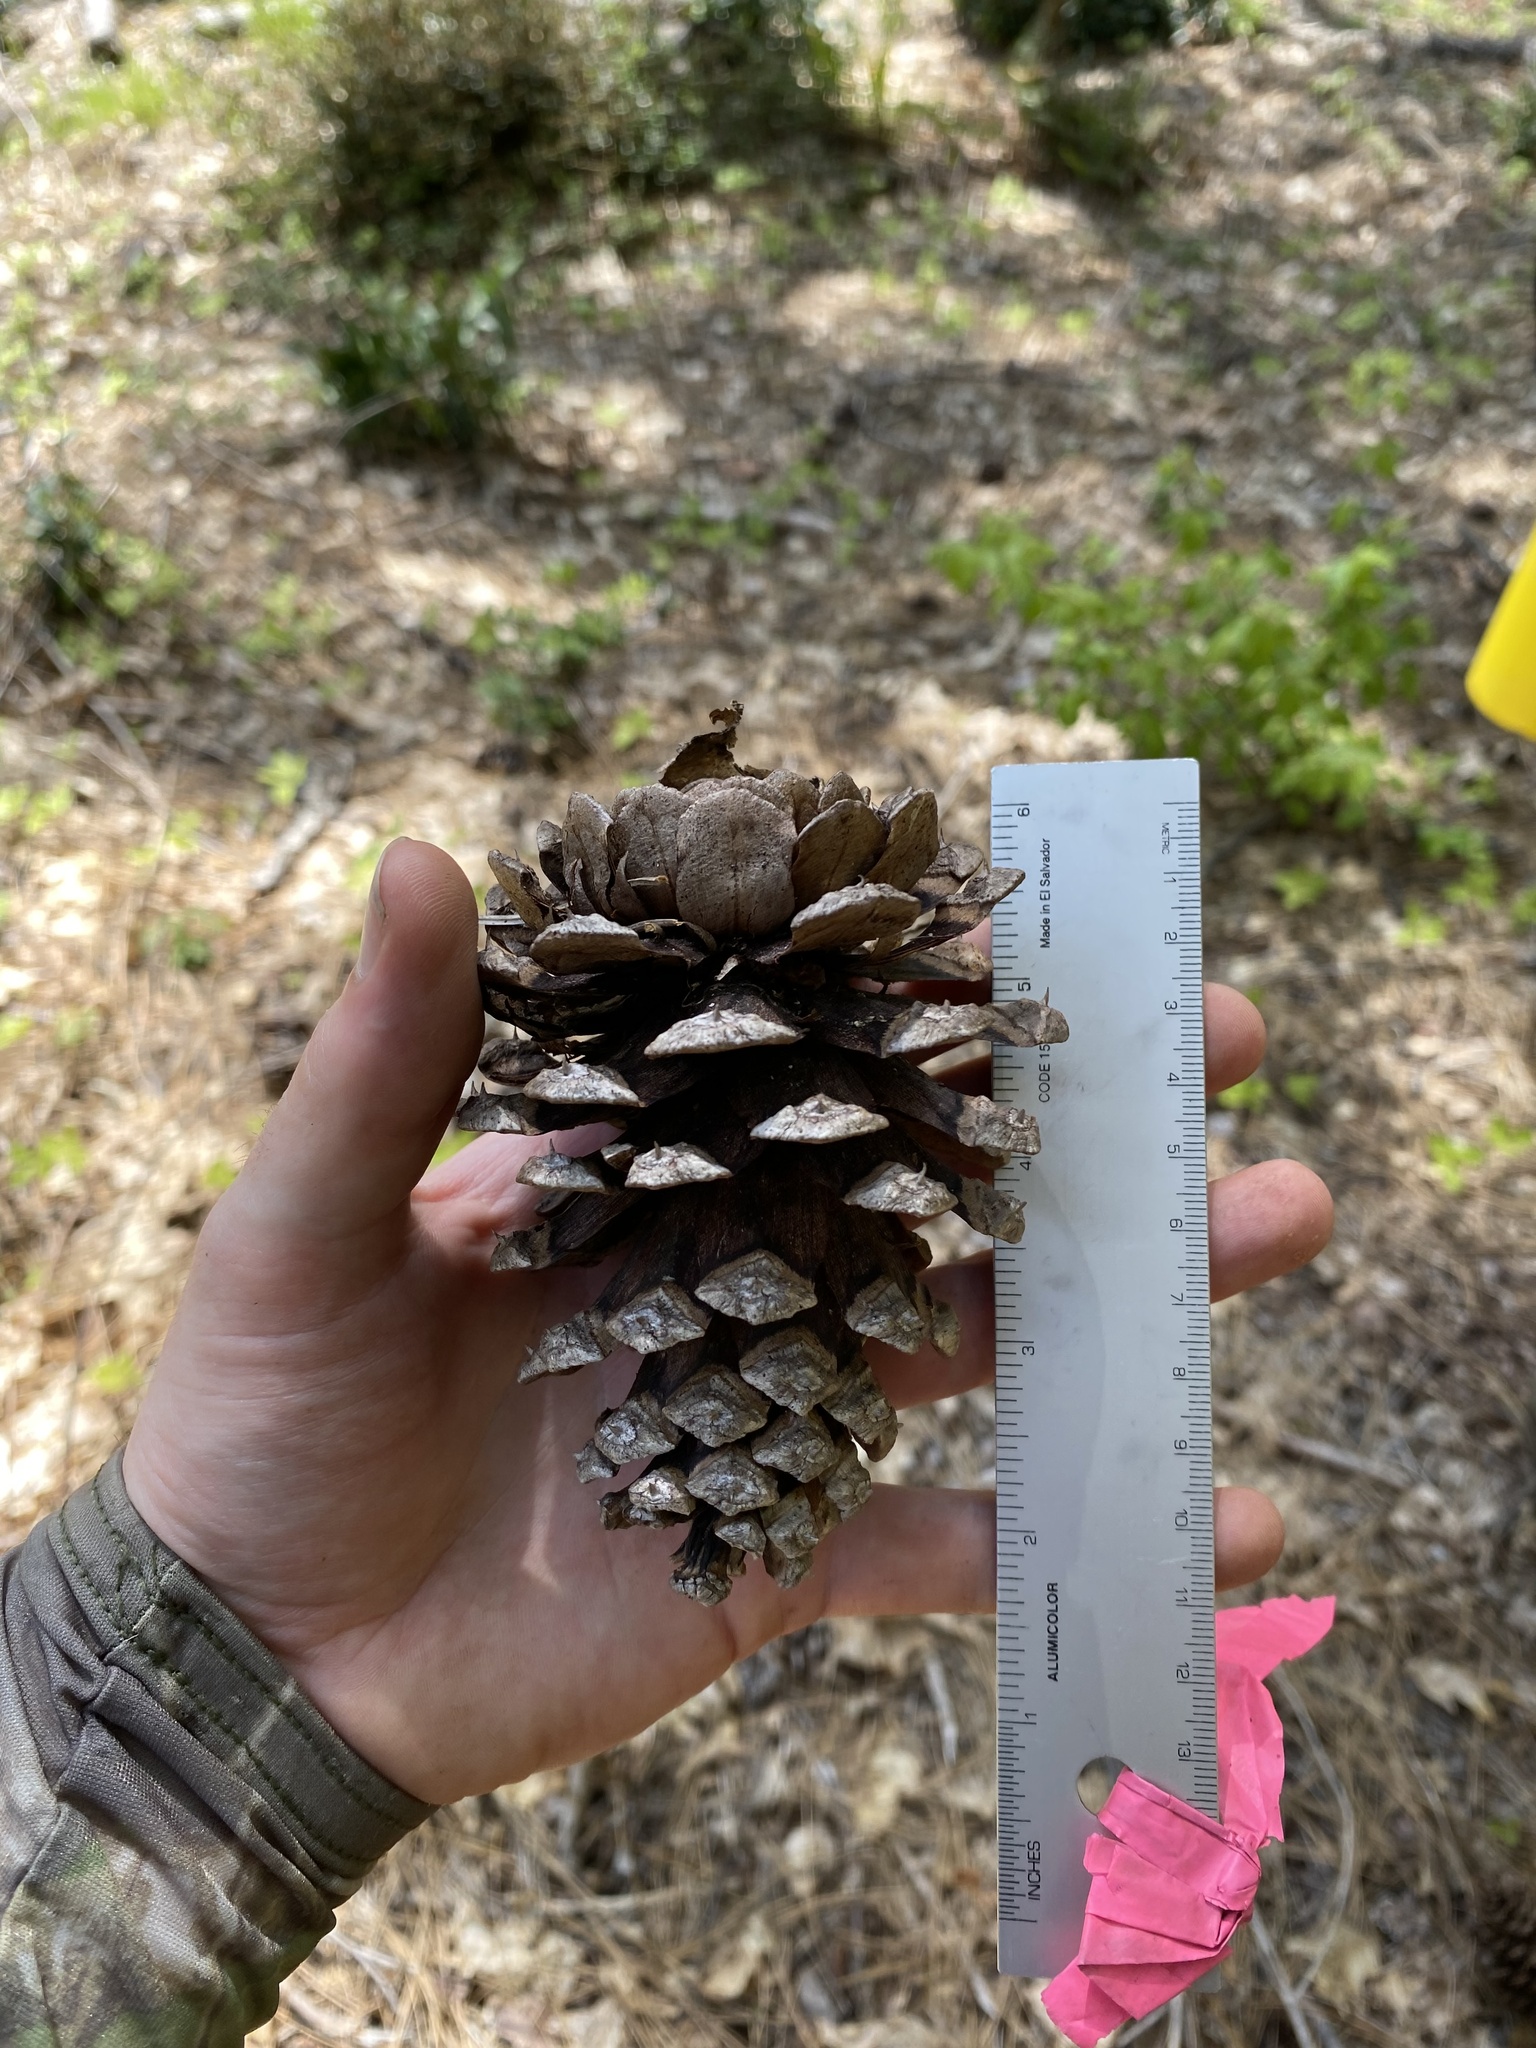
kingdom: Plantae
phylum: Tracheophyta
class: Pinopsida
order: Pinales
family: Pinaceae
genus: Pinus
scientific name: Pinus ponderosa
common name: Western yellow-pine
